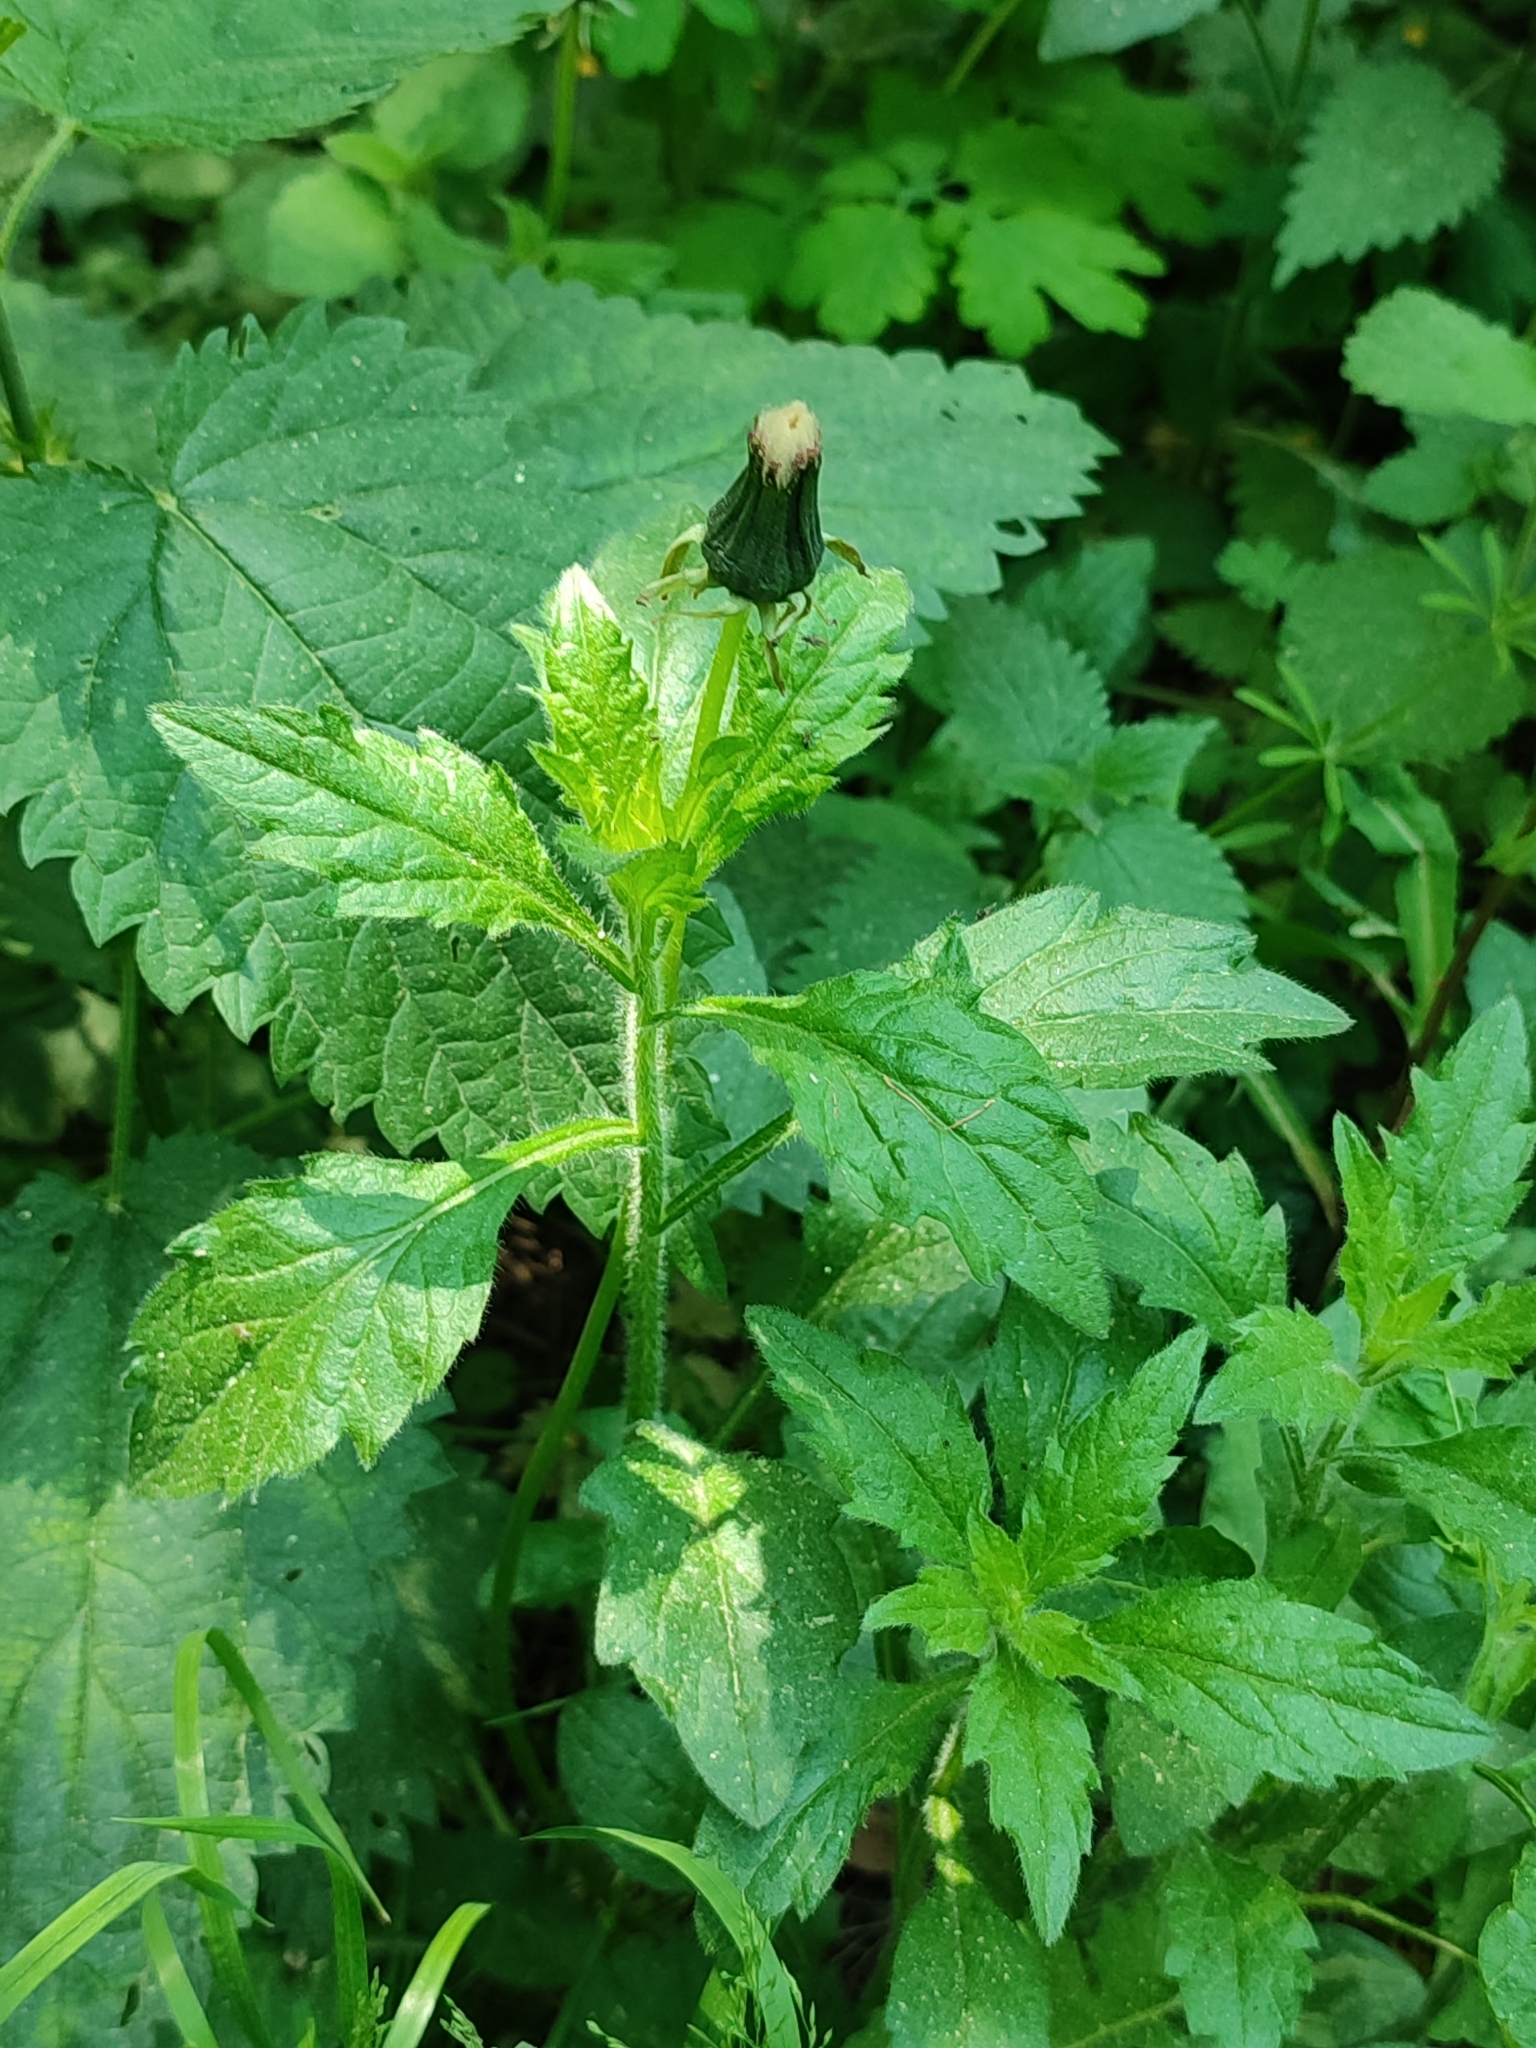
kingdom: Plantae
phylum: Tracheophyta
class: Magnoliopsida
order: Asterales
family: Asteraceae
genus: Erigeron
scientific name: Erigeron annuus
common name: Tall fleabane
